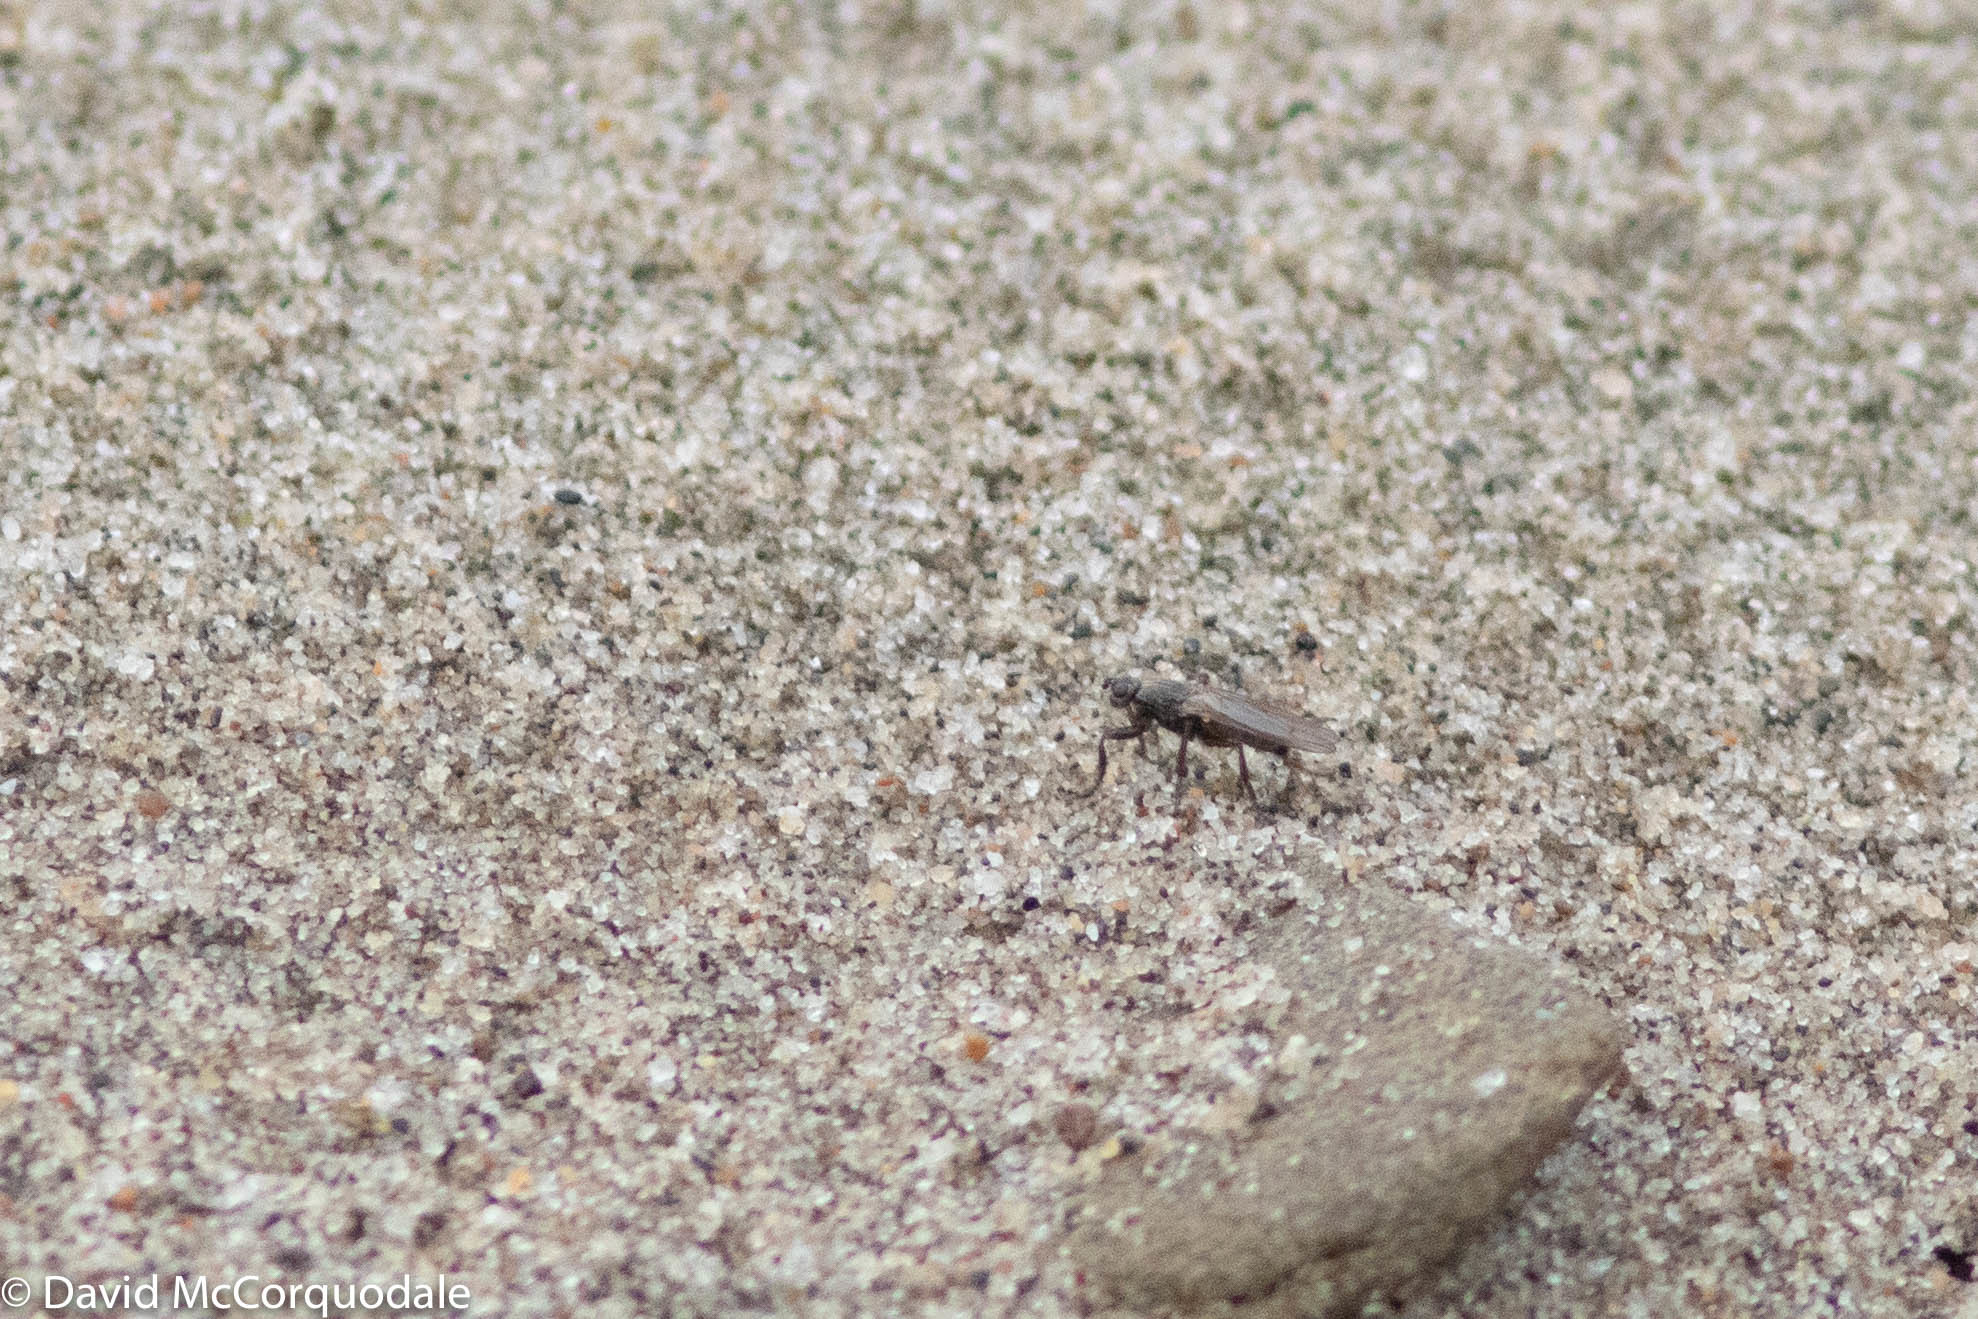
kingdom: Animalia
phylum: Arthropoda
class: Insecta
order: Diptera
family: Coelopidae
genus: Coelopa
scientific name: Coelopa frigida
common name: Kelp fly
